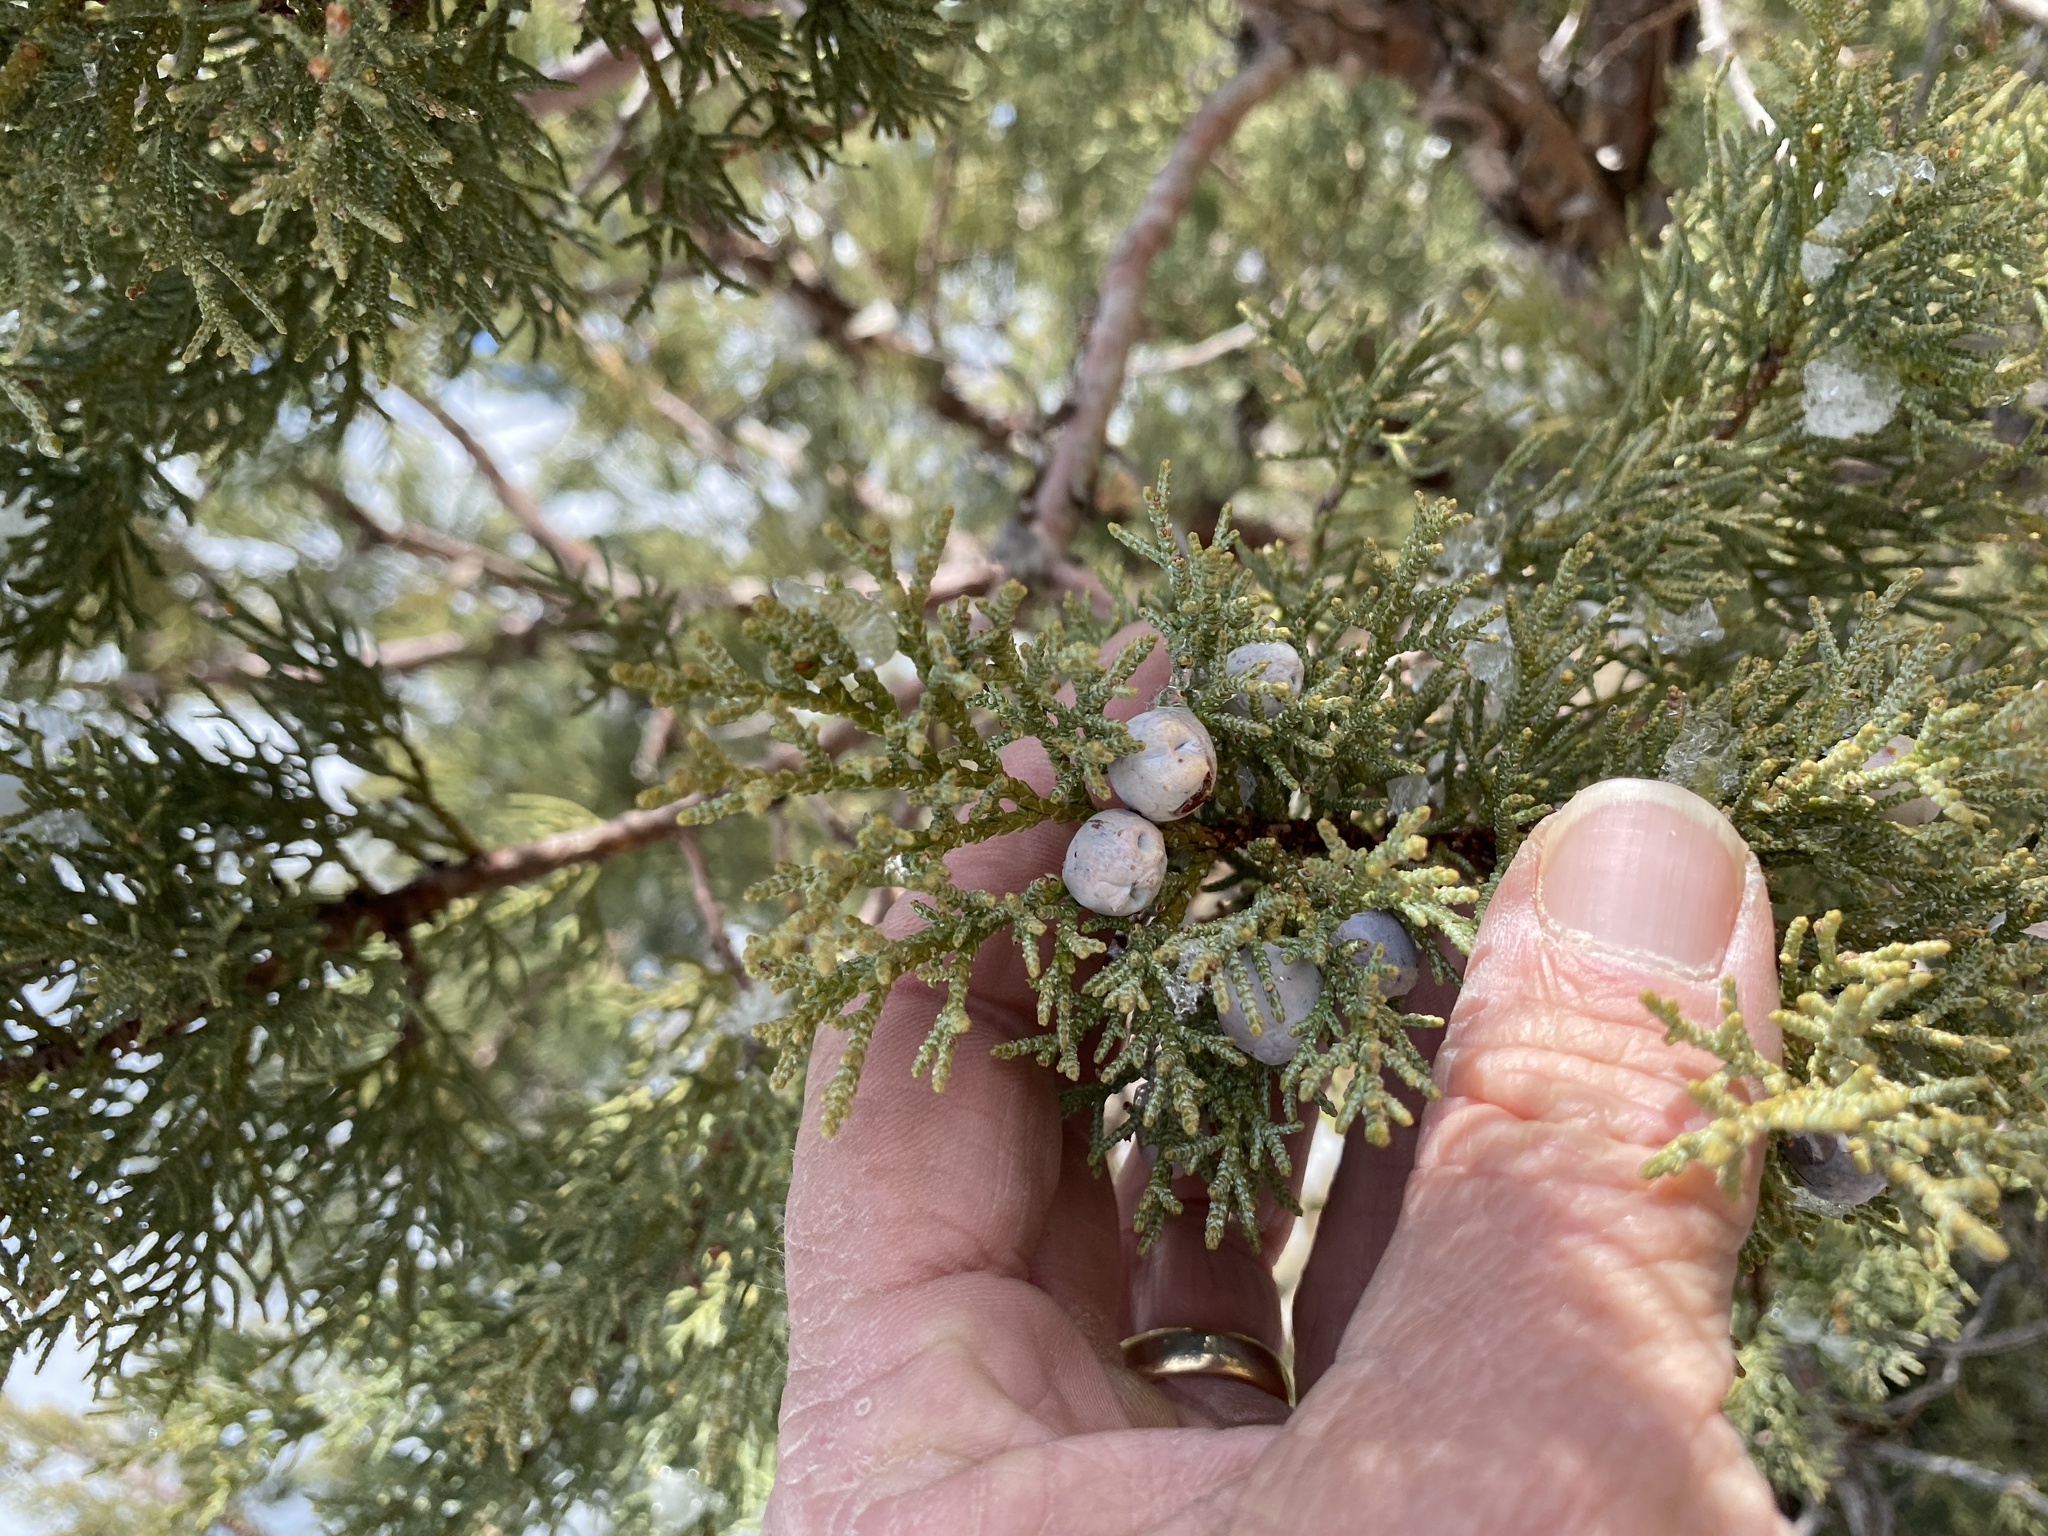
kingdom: Plantae
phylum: Tracheophyta
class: Pinopsida
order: Pinales
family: Cupressaceae
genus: Juniperus
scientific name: Juniperus deppeana
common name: Alligator juniper
